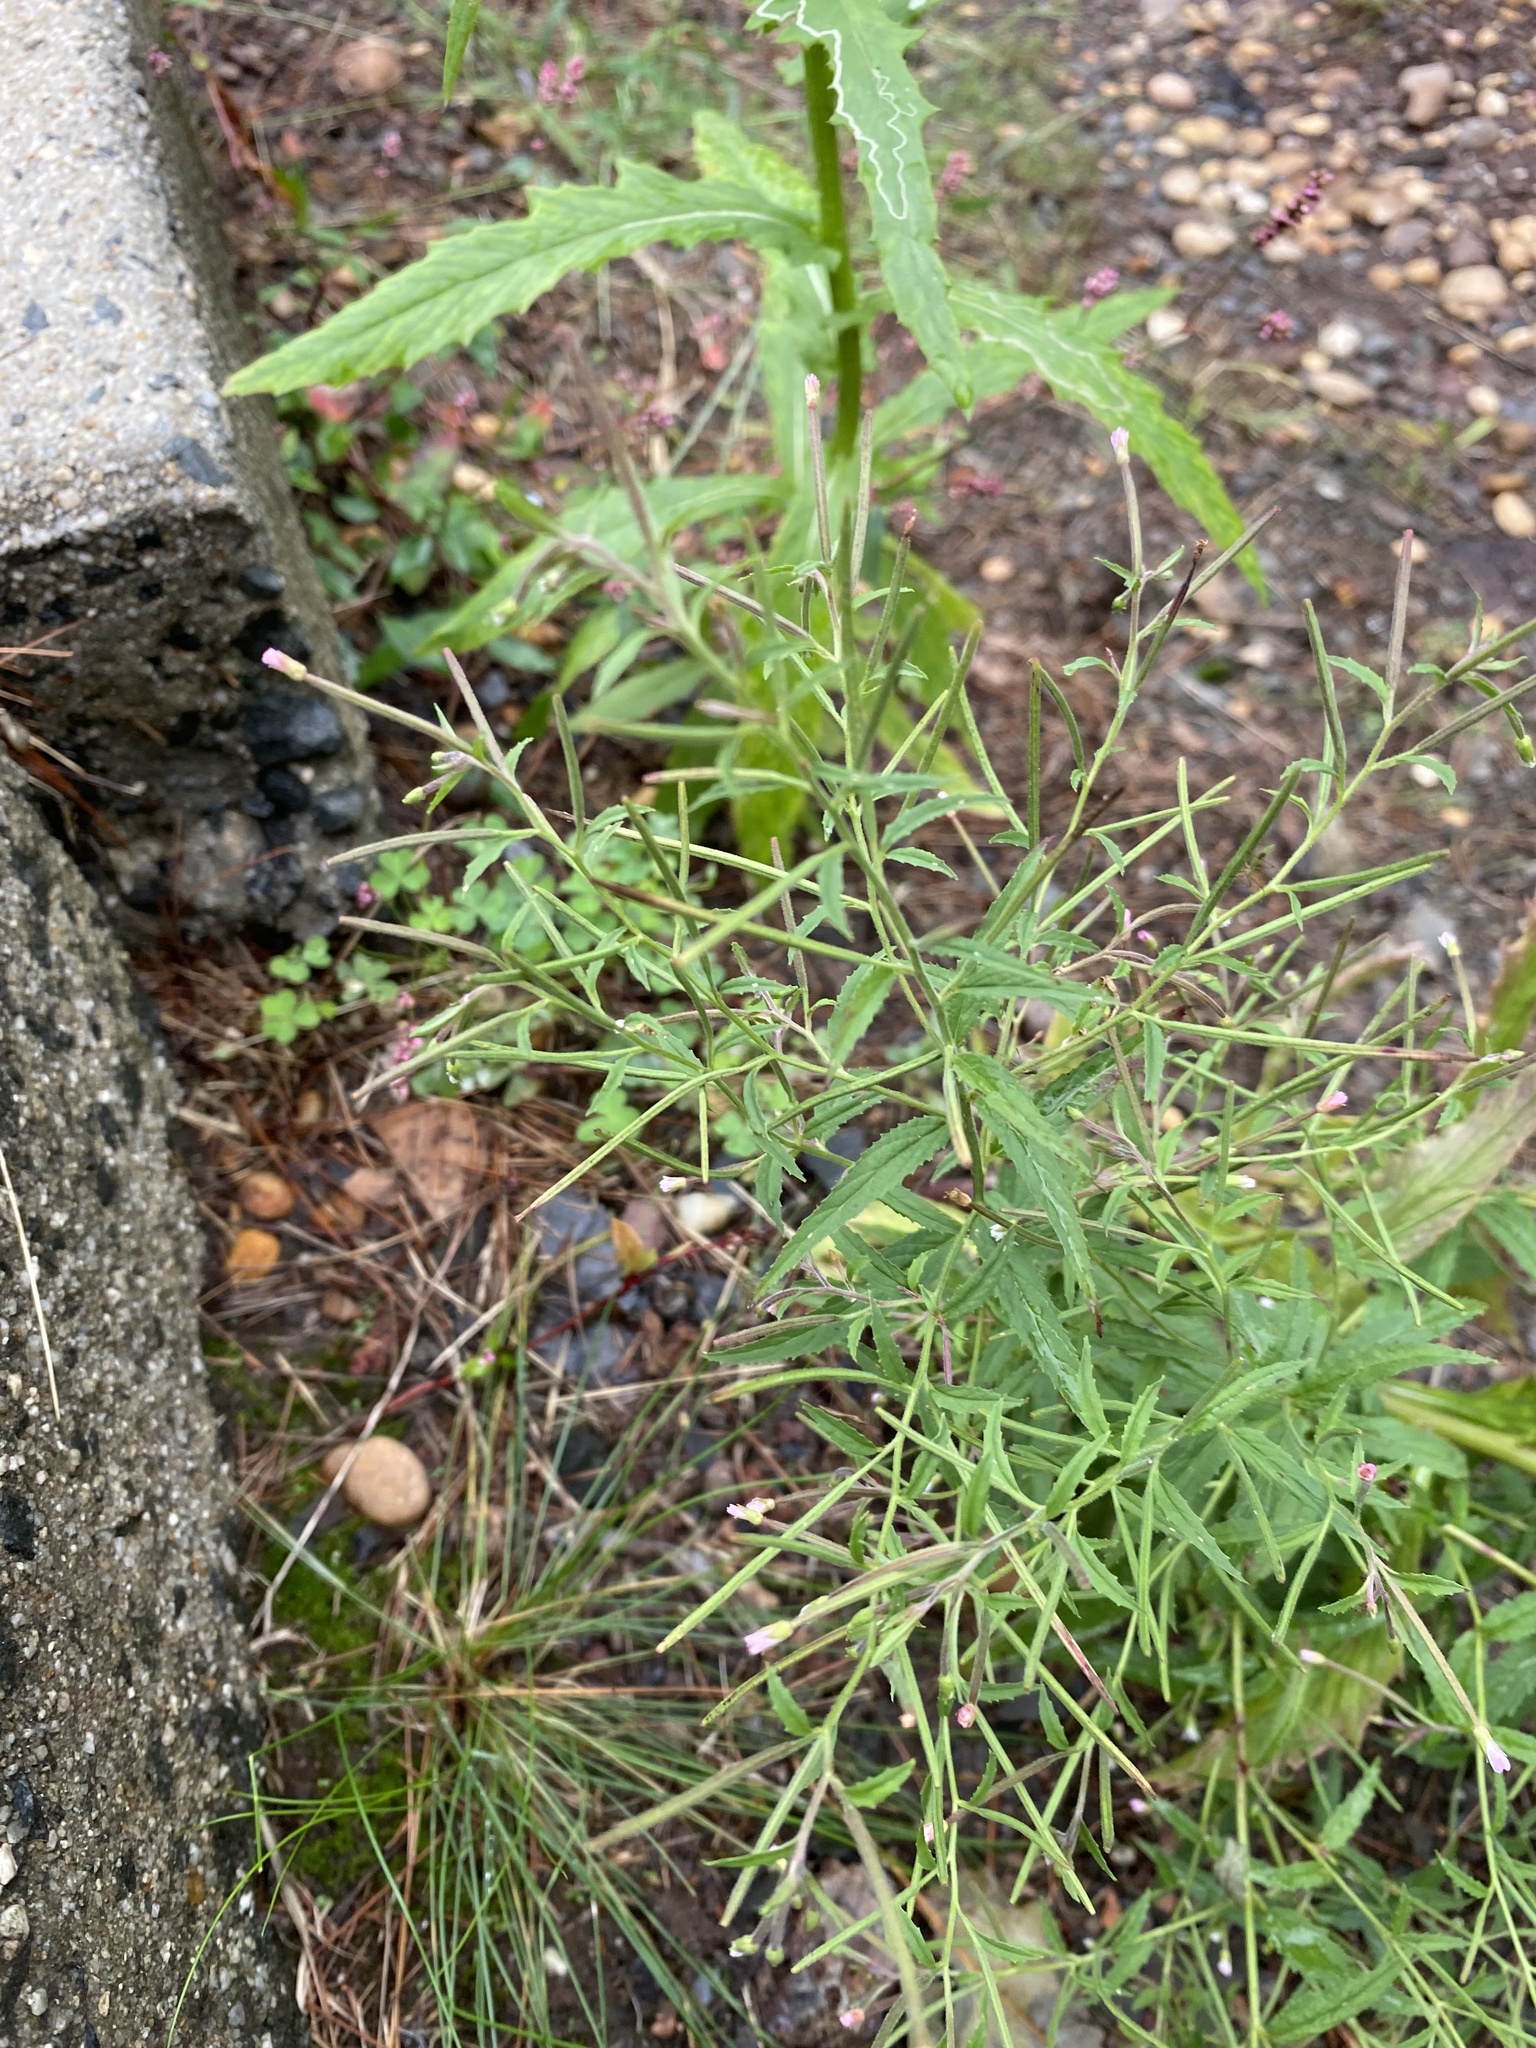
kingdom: Plantae
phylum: Tracheophyta
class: Magnoliopsida
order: Myrtales
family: Onagraceae
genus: Epilobium
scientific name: Epilobium coloratum
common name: Bronze willowherb
